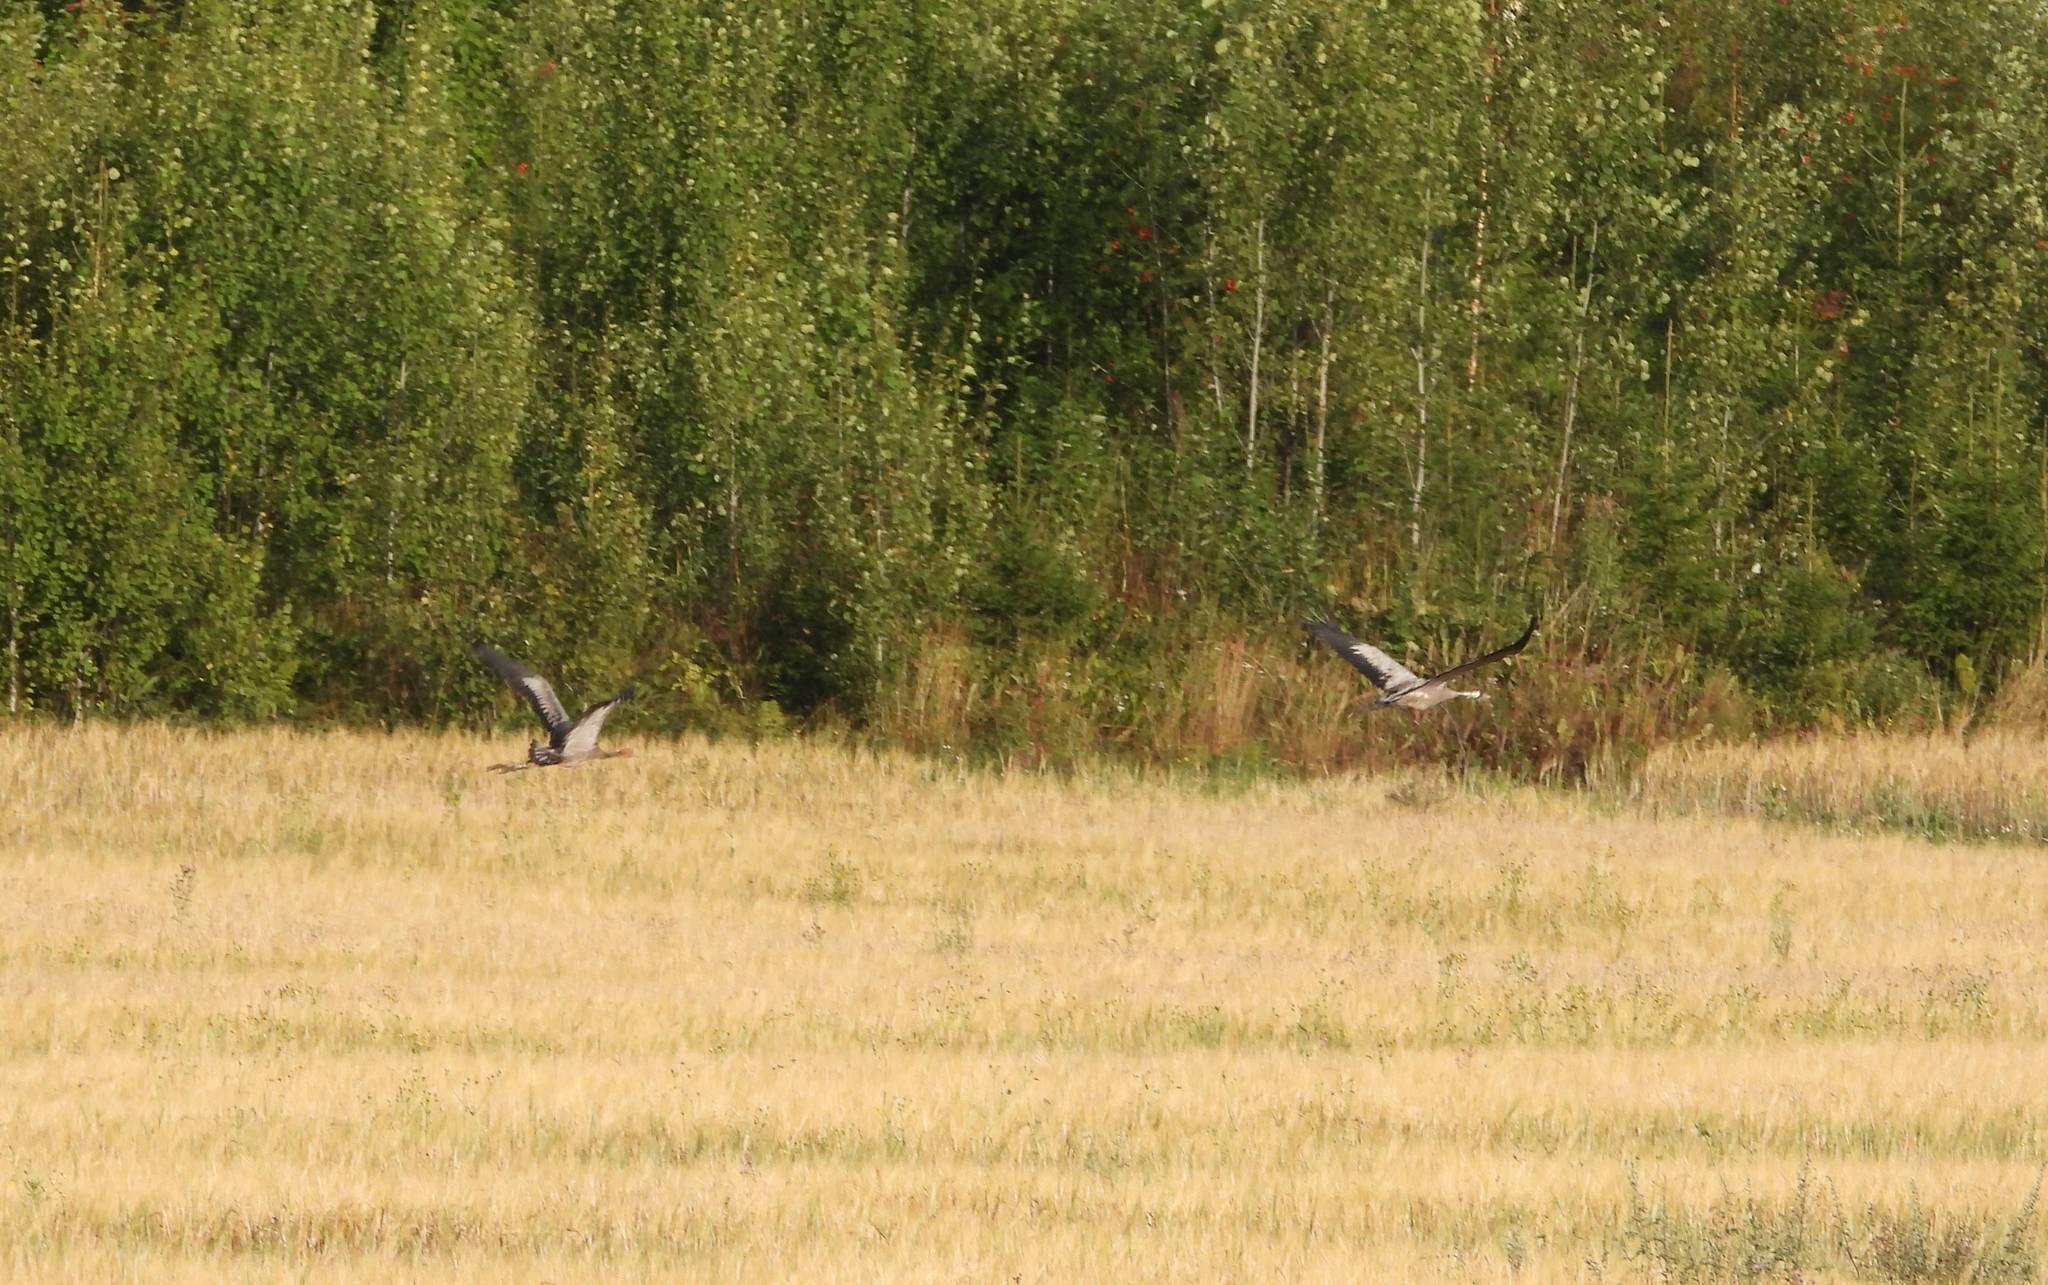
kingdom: Animalia
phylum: Chordata
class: Aves
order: Gruiformes
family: Gruidae
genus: Grus
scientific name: Grus grus
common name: Common crane
